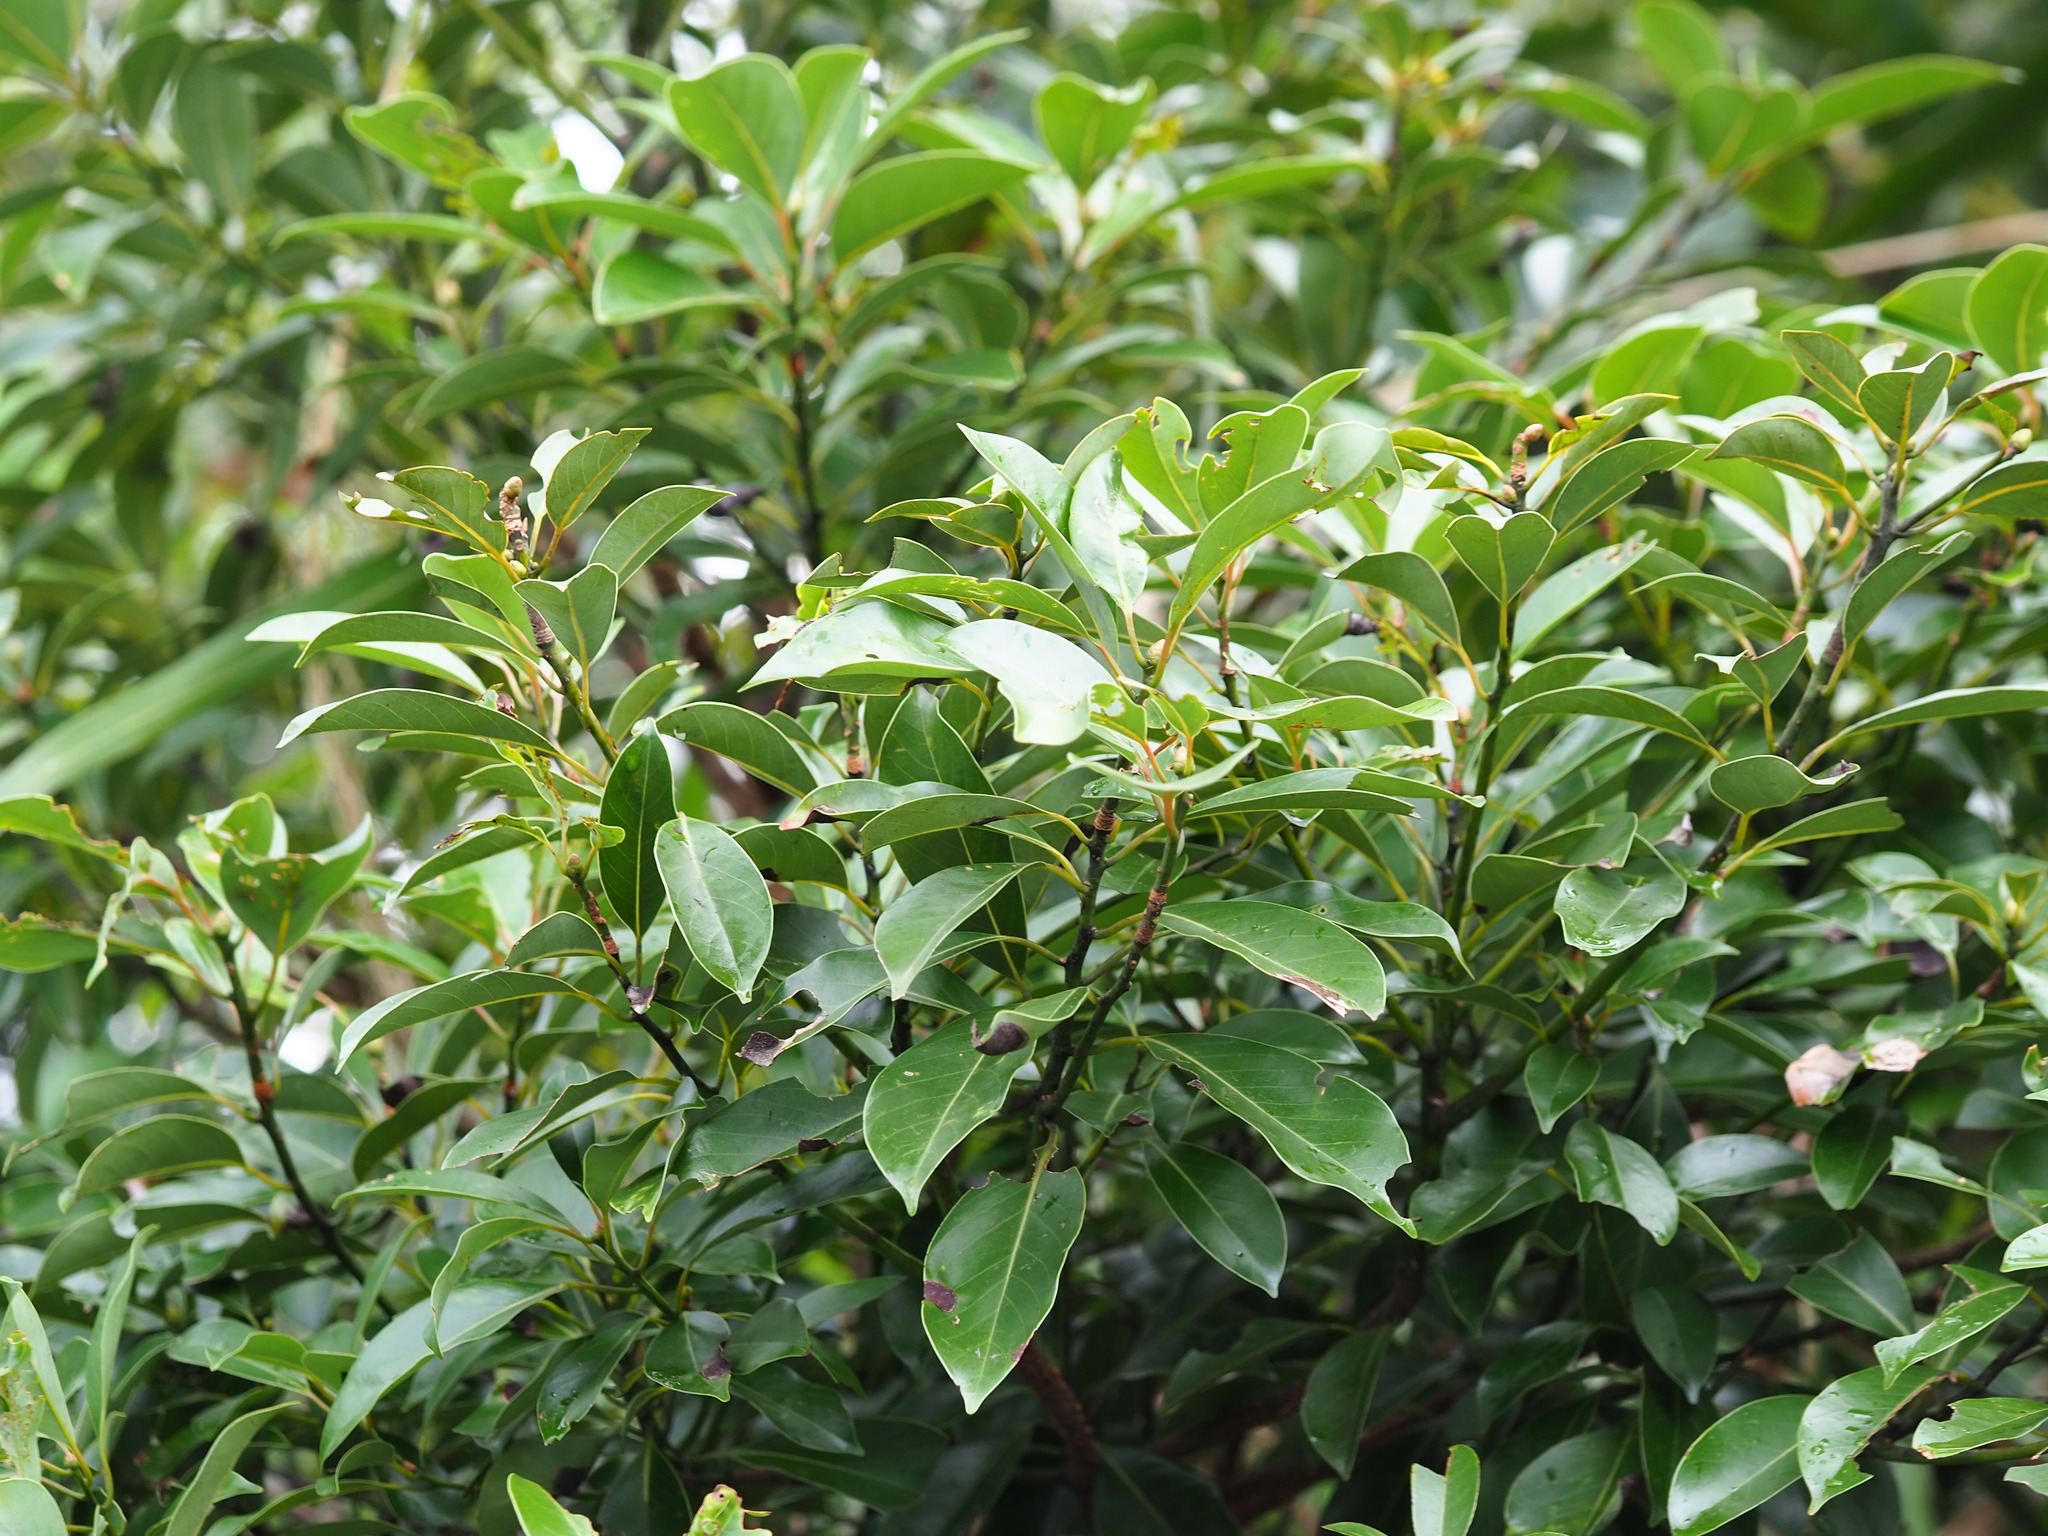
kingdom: Plantae
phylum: Tracheophyta
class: Magnoliopsida
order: Laurales
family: Lauraceae
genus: Machilus
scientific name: Machilus thunbergii
